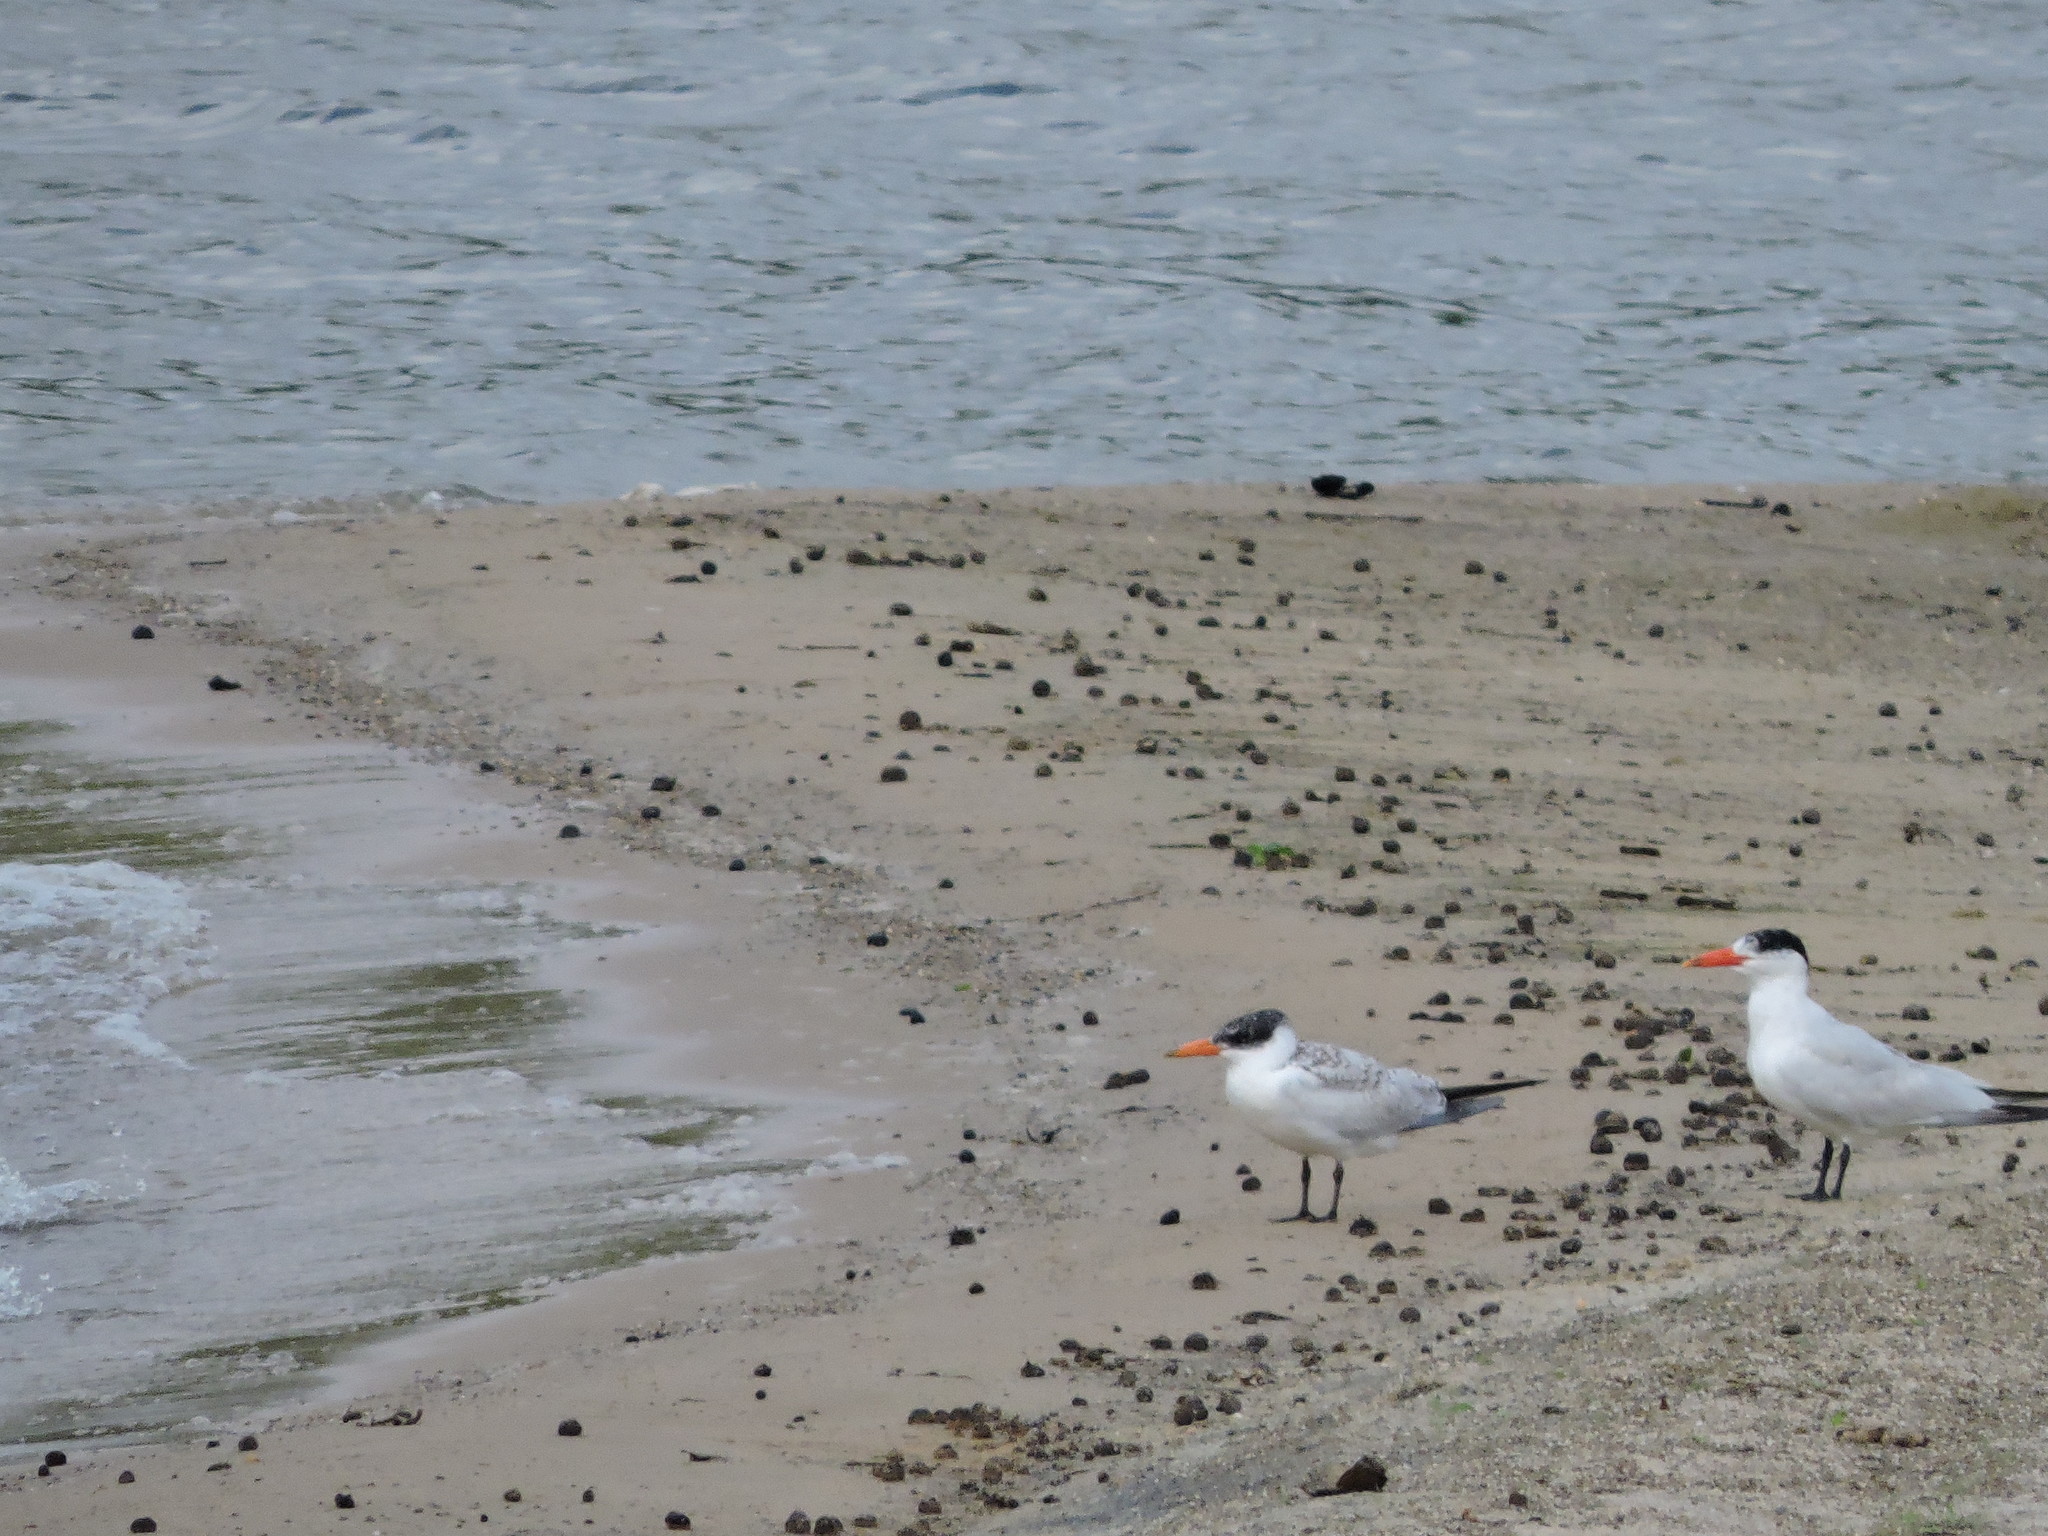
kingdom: Animalia
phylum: Chordata
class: Aves
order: Charadriiformes
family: Laridae
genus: Hydroprogne
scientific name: Hydroprogne caspia
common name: Caspian tern
